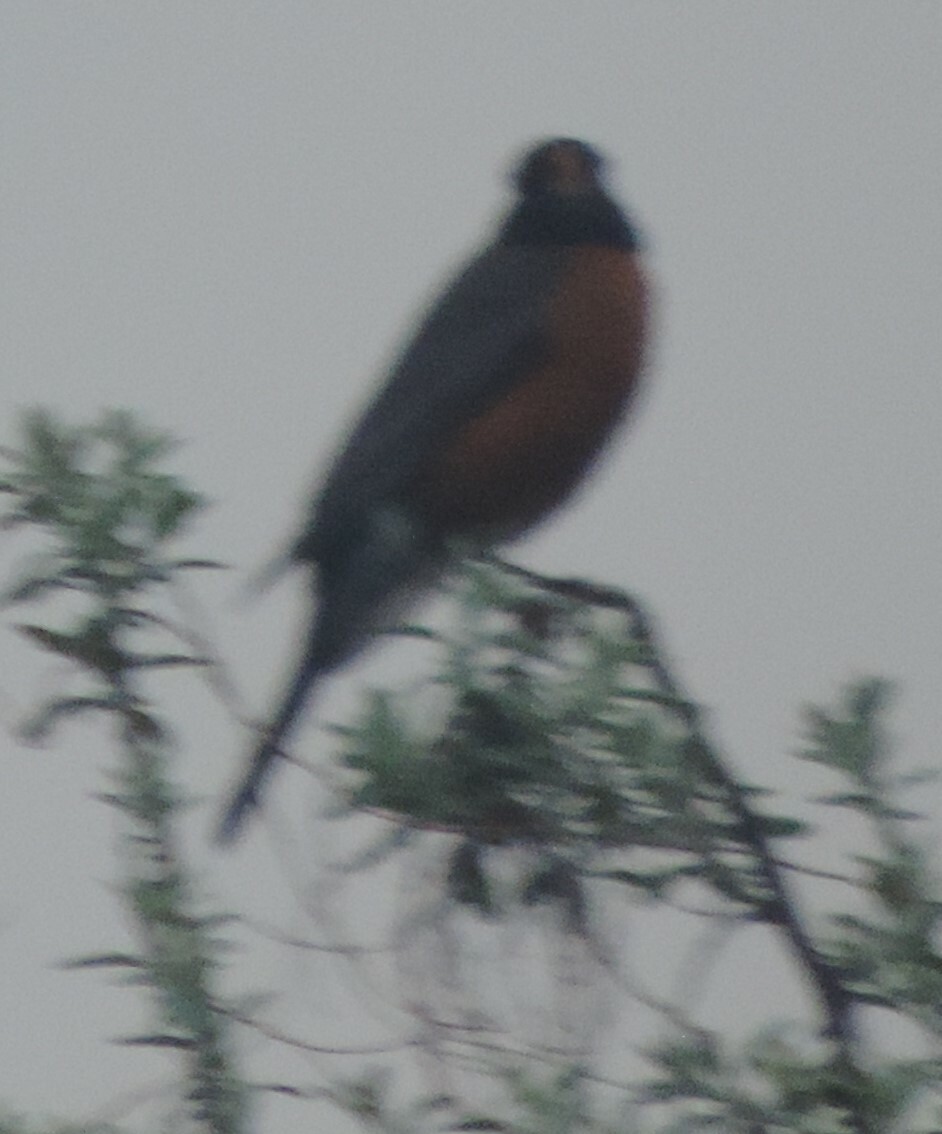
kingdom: Animalia
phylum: Chordata
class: Aves
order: Passeriformes
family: Turdidae
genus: Turdus
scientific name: Turdus migratorius
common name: American robin
